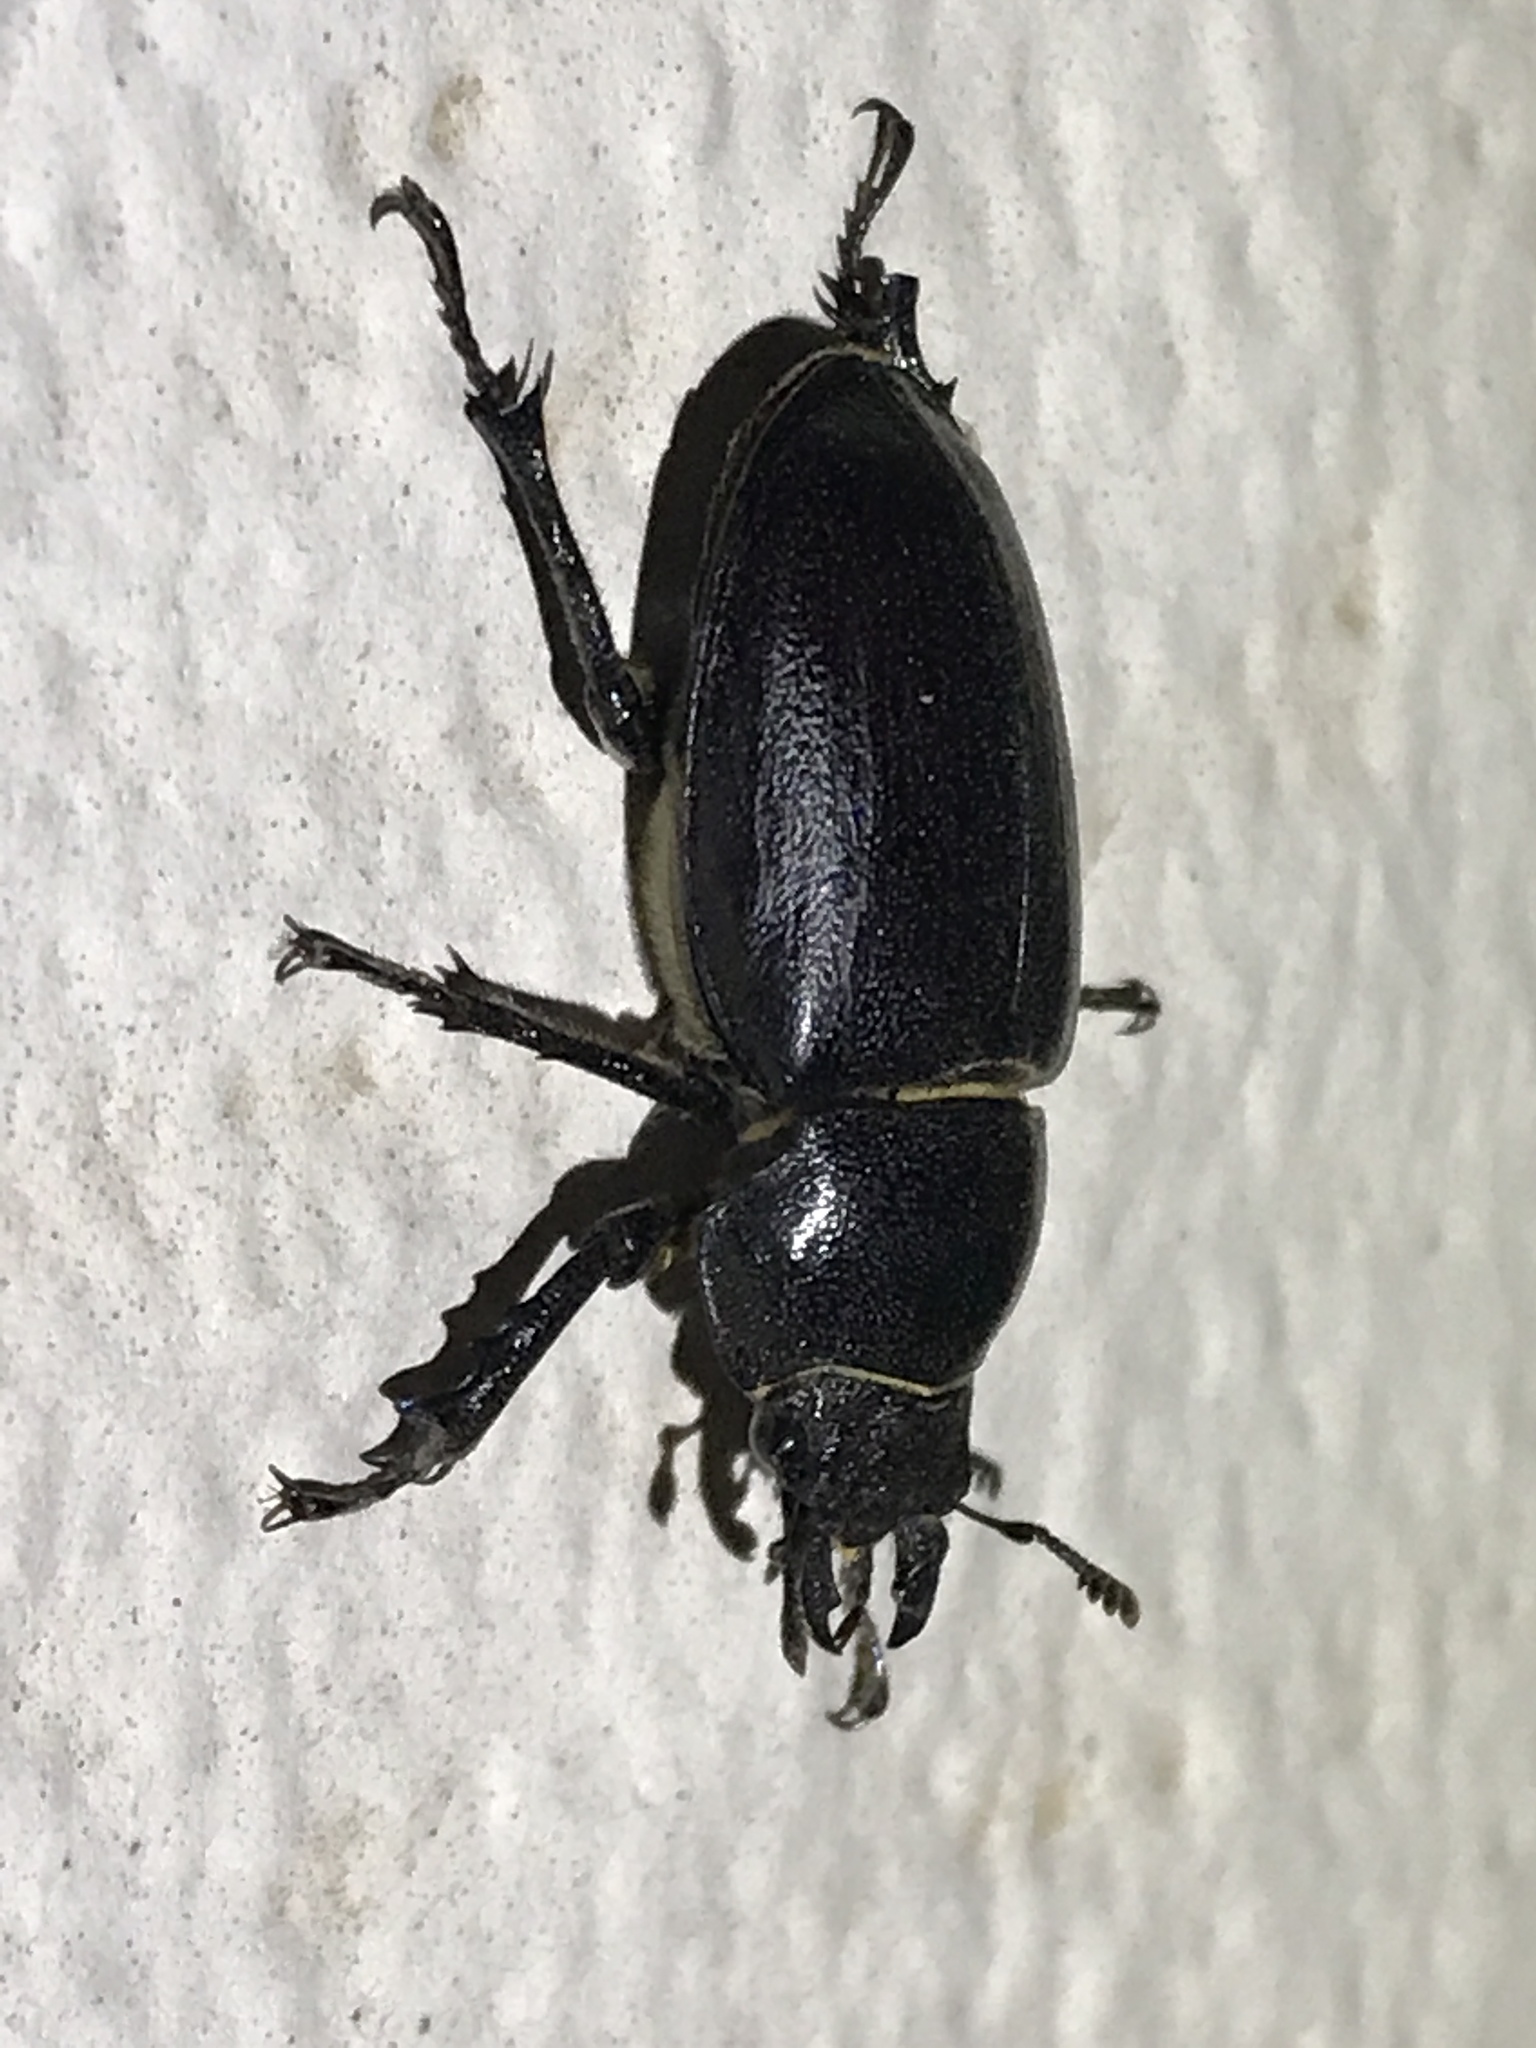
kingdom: Animalia
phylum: Arthropoda
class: Insecta
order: Coleoptera
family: Lucanidae
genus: Lucanus
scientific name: Lucanus mazama
